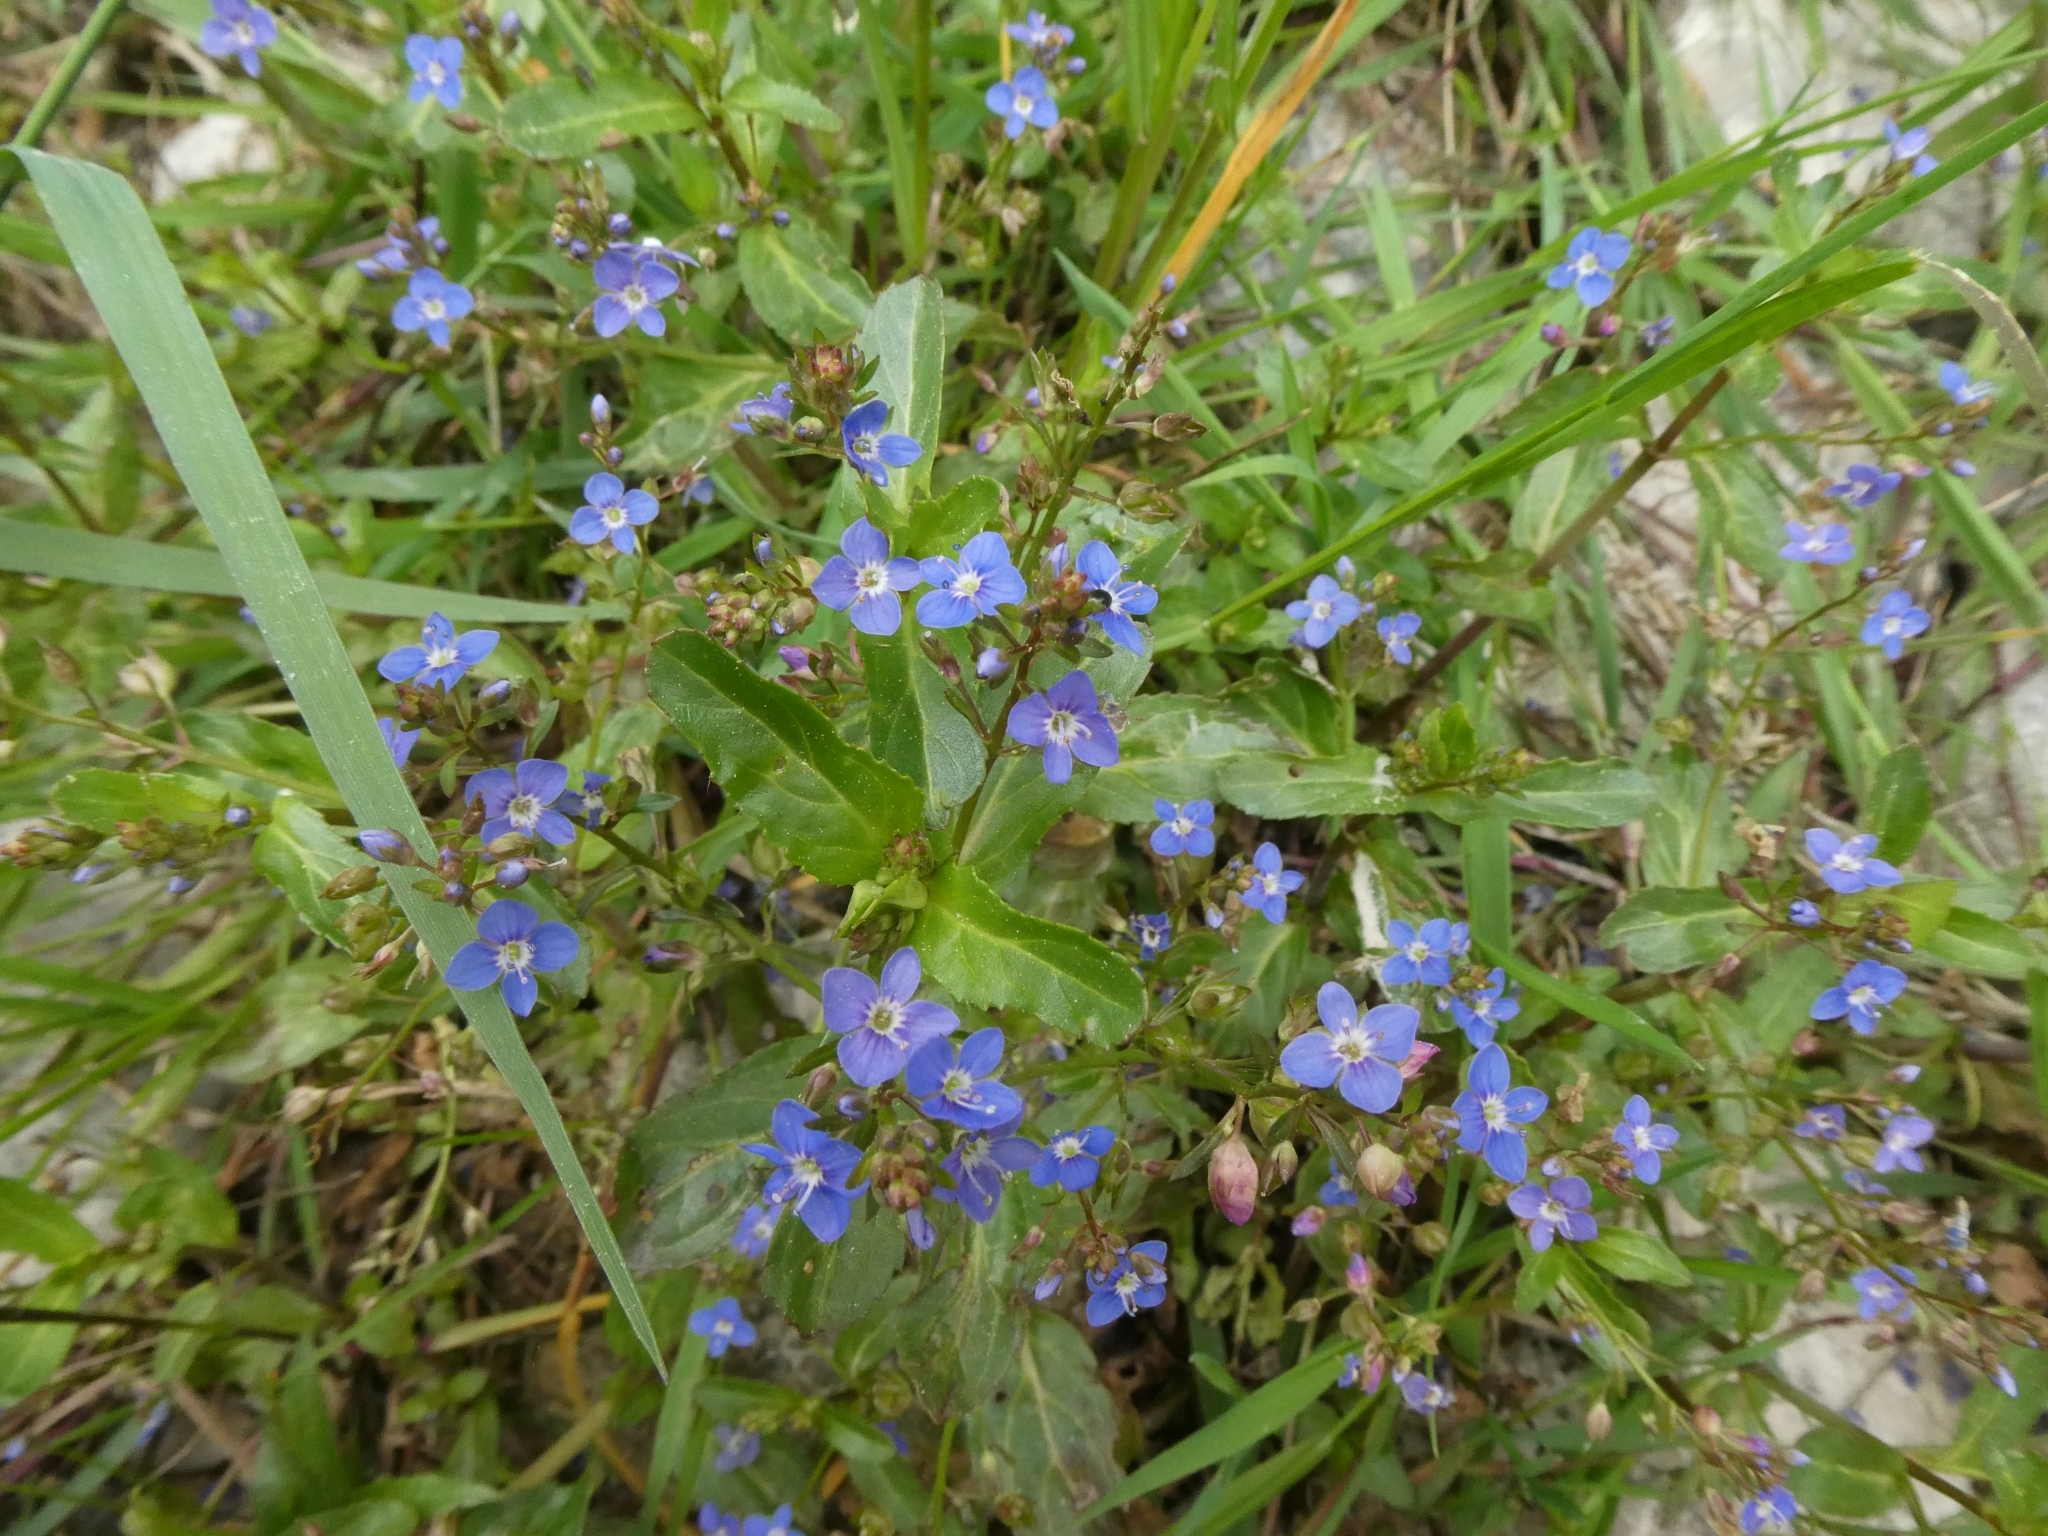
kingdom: Plantae
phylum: Tracheophyta
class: Magnoliopsida
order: Lamiales
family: Plantaginaceae
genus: Veronica
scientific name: Veronica beccabunga
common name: Brooklime
